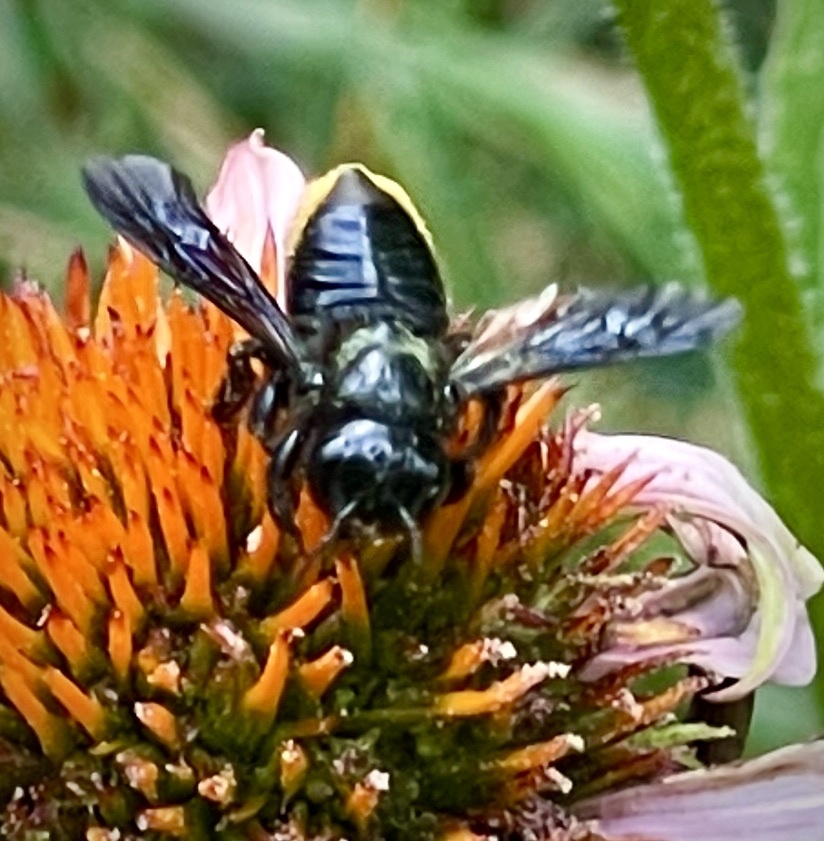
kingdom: Animalia
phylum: Arthropoda
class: Insecta
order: Hymenoptera
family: Megachilidae
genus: Megachile
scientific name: Megachile xylocopoides
